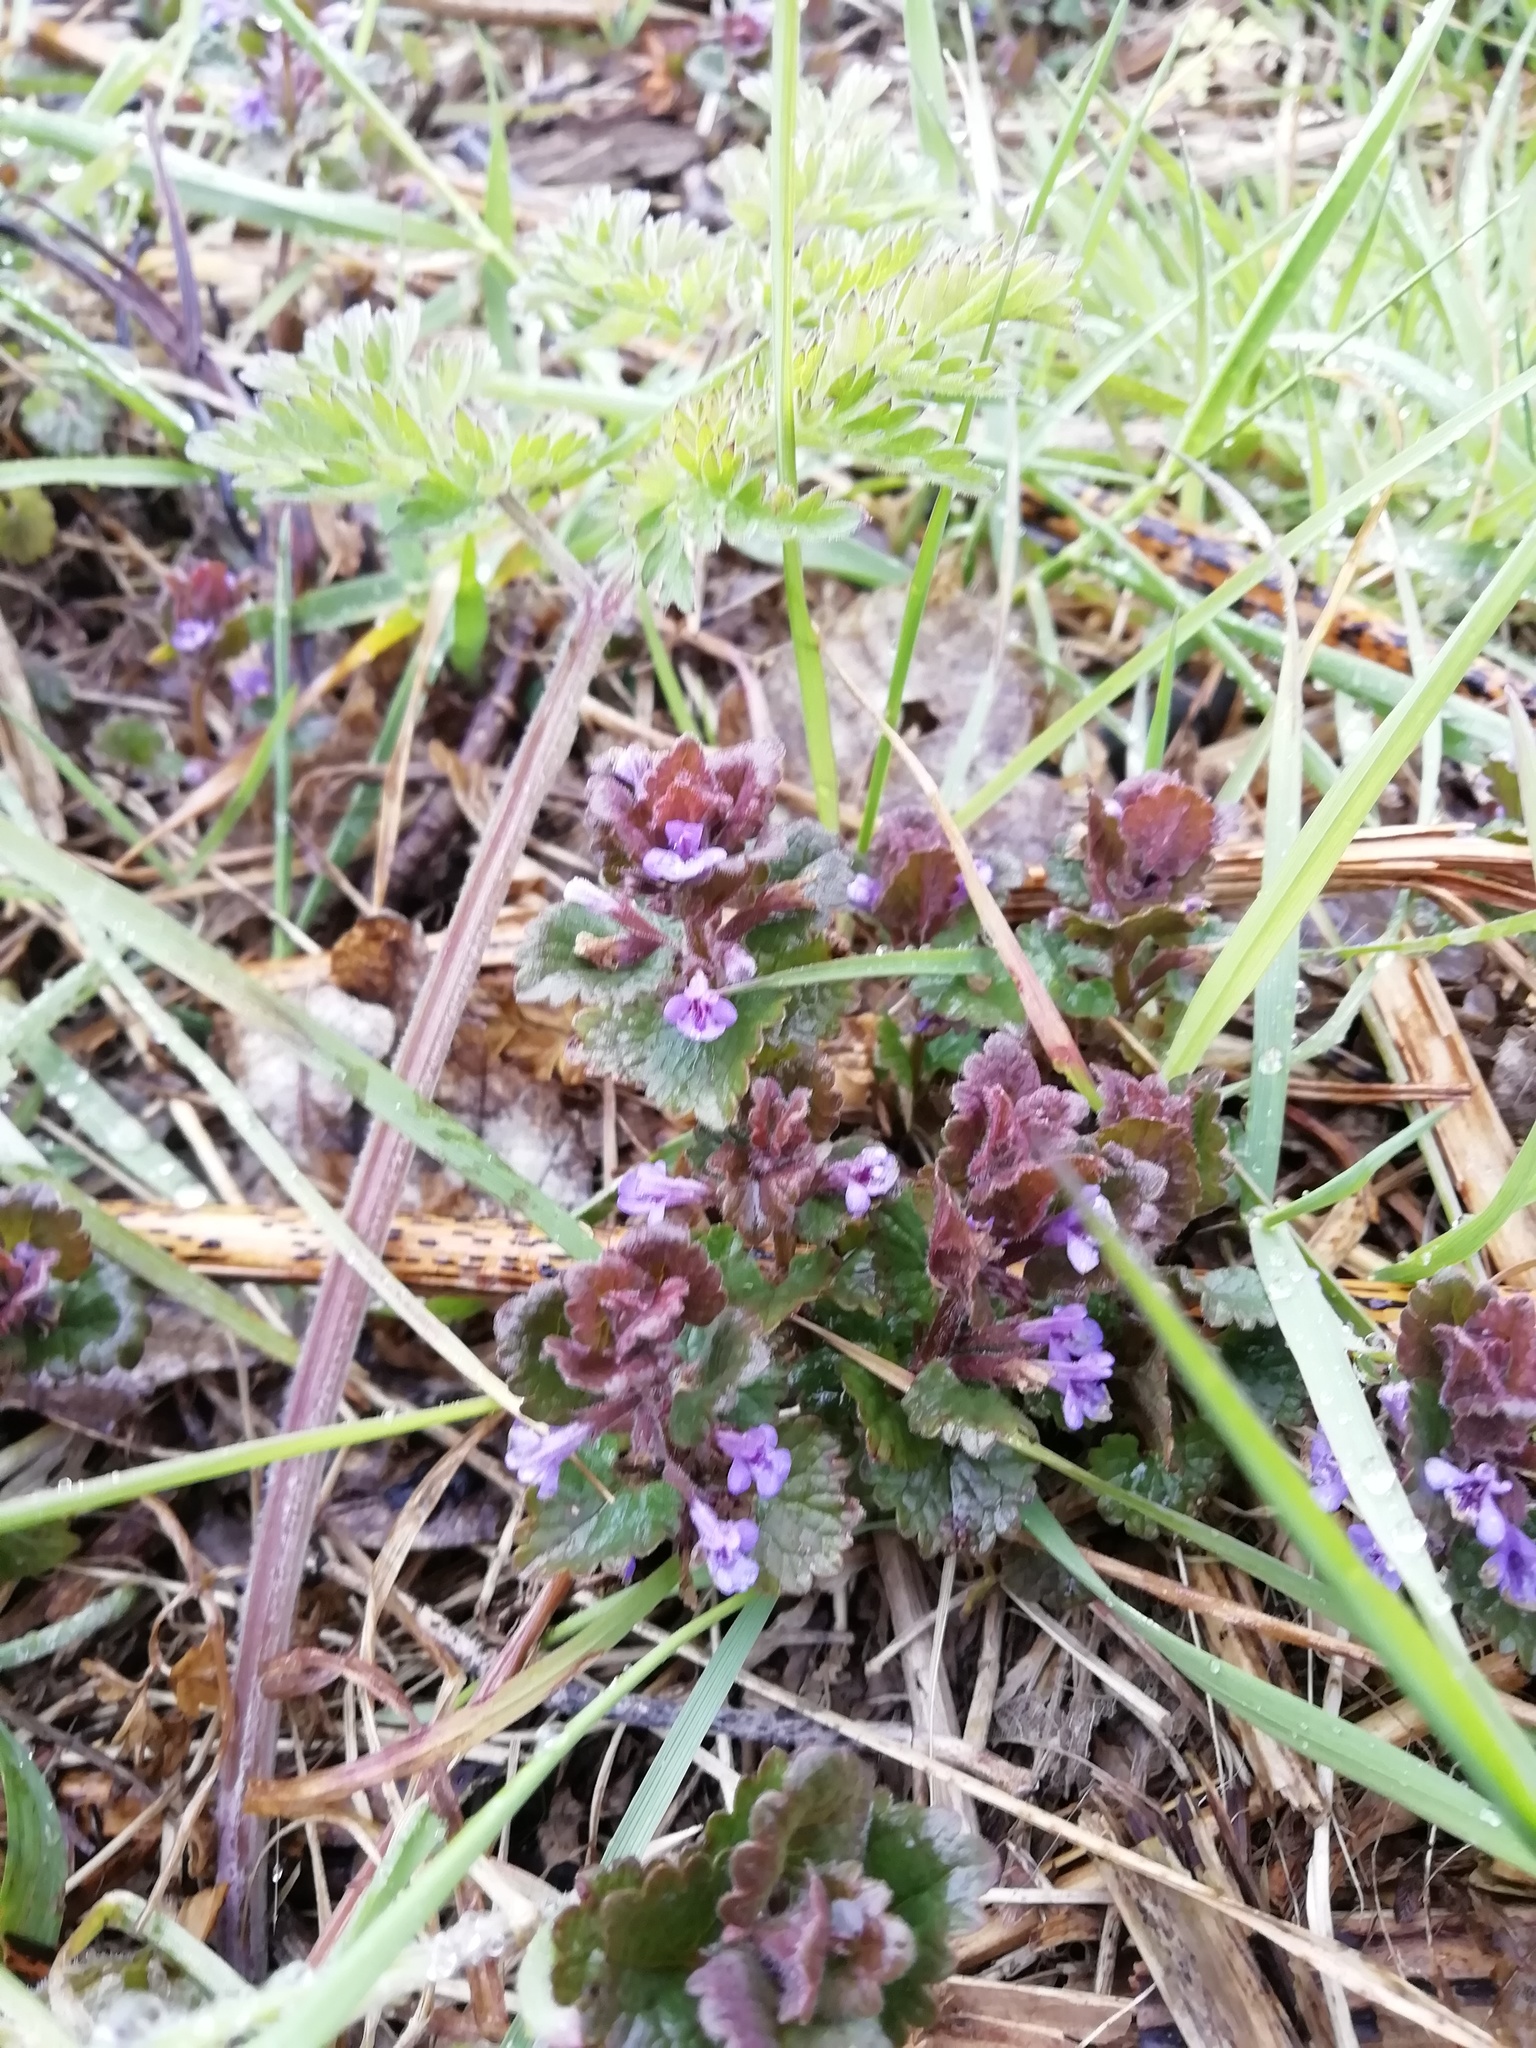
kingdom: Plantae
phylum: Tracheophyta
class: Magnoliopsida
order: Lamiales
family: Lamiaceae
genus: Glechoma
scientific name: Glechoma hederacea
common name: Ground ivy
